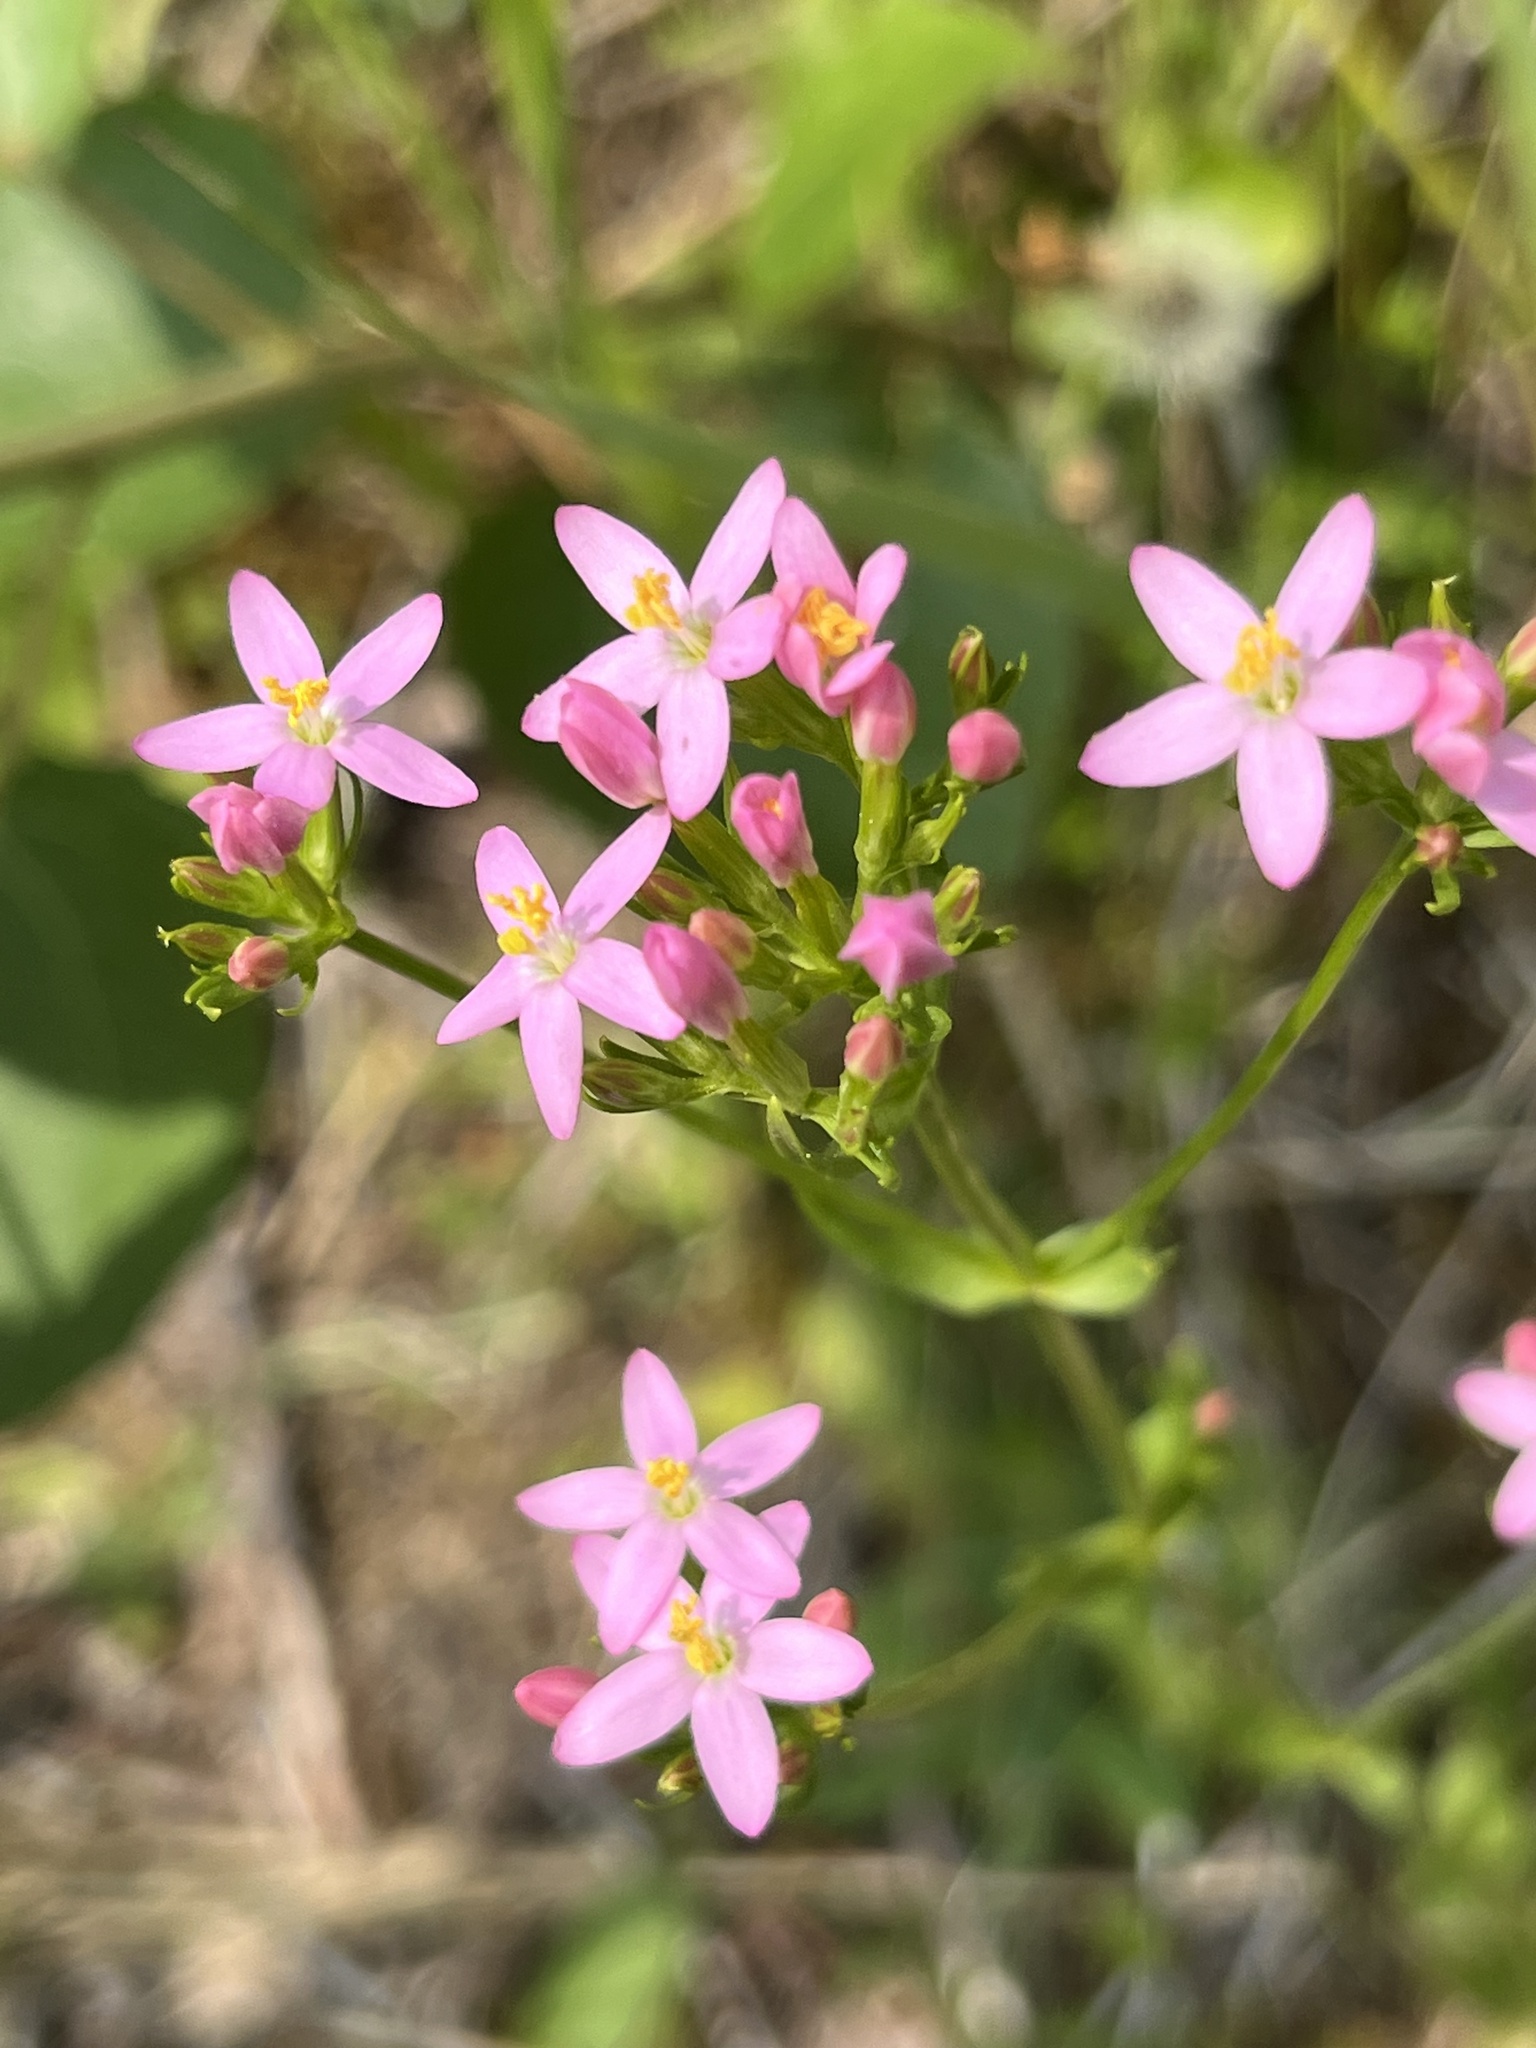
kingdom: Plantae
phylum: Tracheophyta
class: Magnoliopsida
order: Gentianales
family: Gentianaceae
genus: Centaurium
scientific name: Centaurium erythraea
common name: Common centaury
